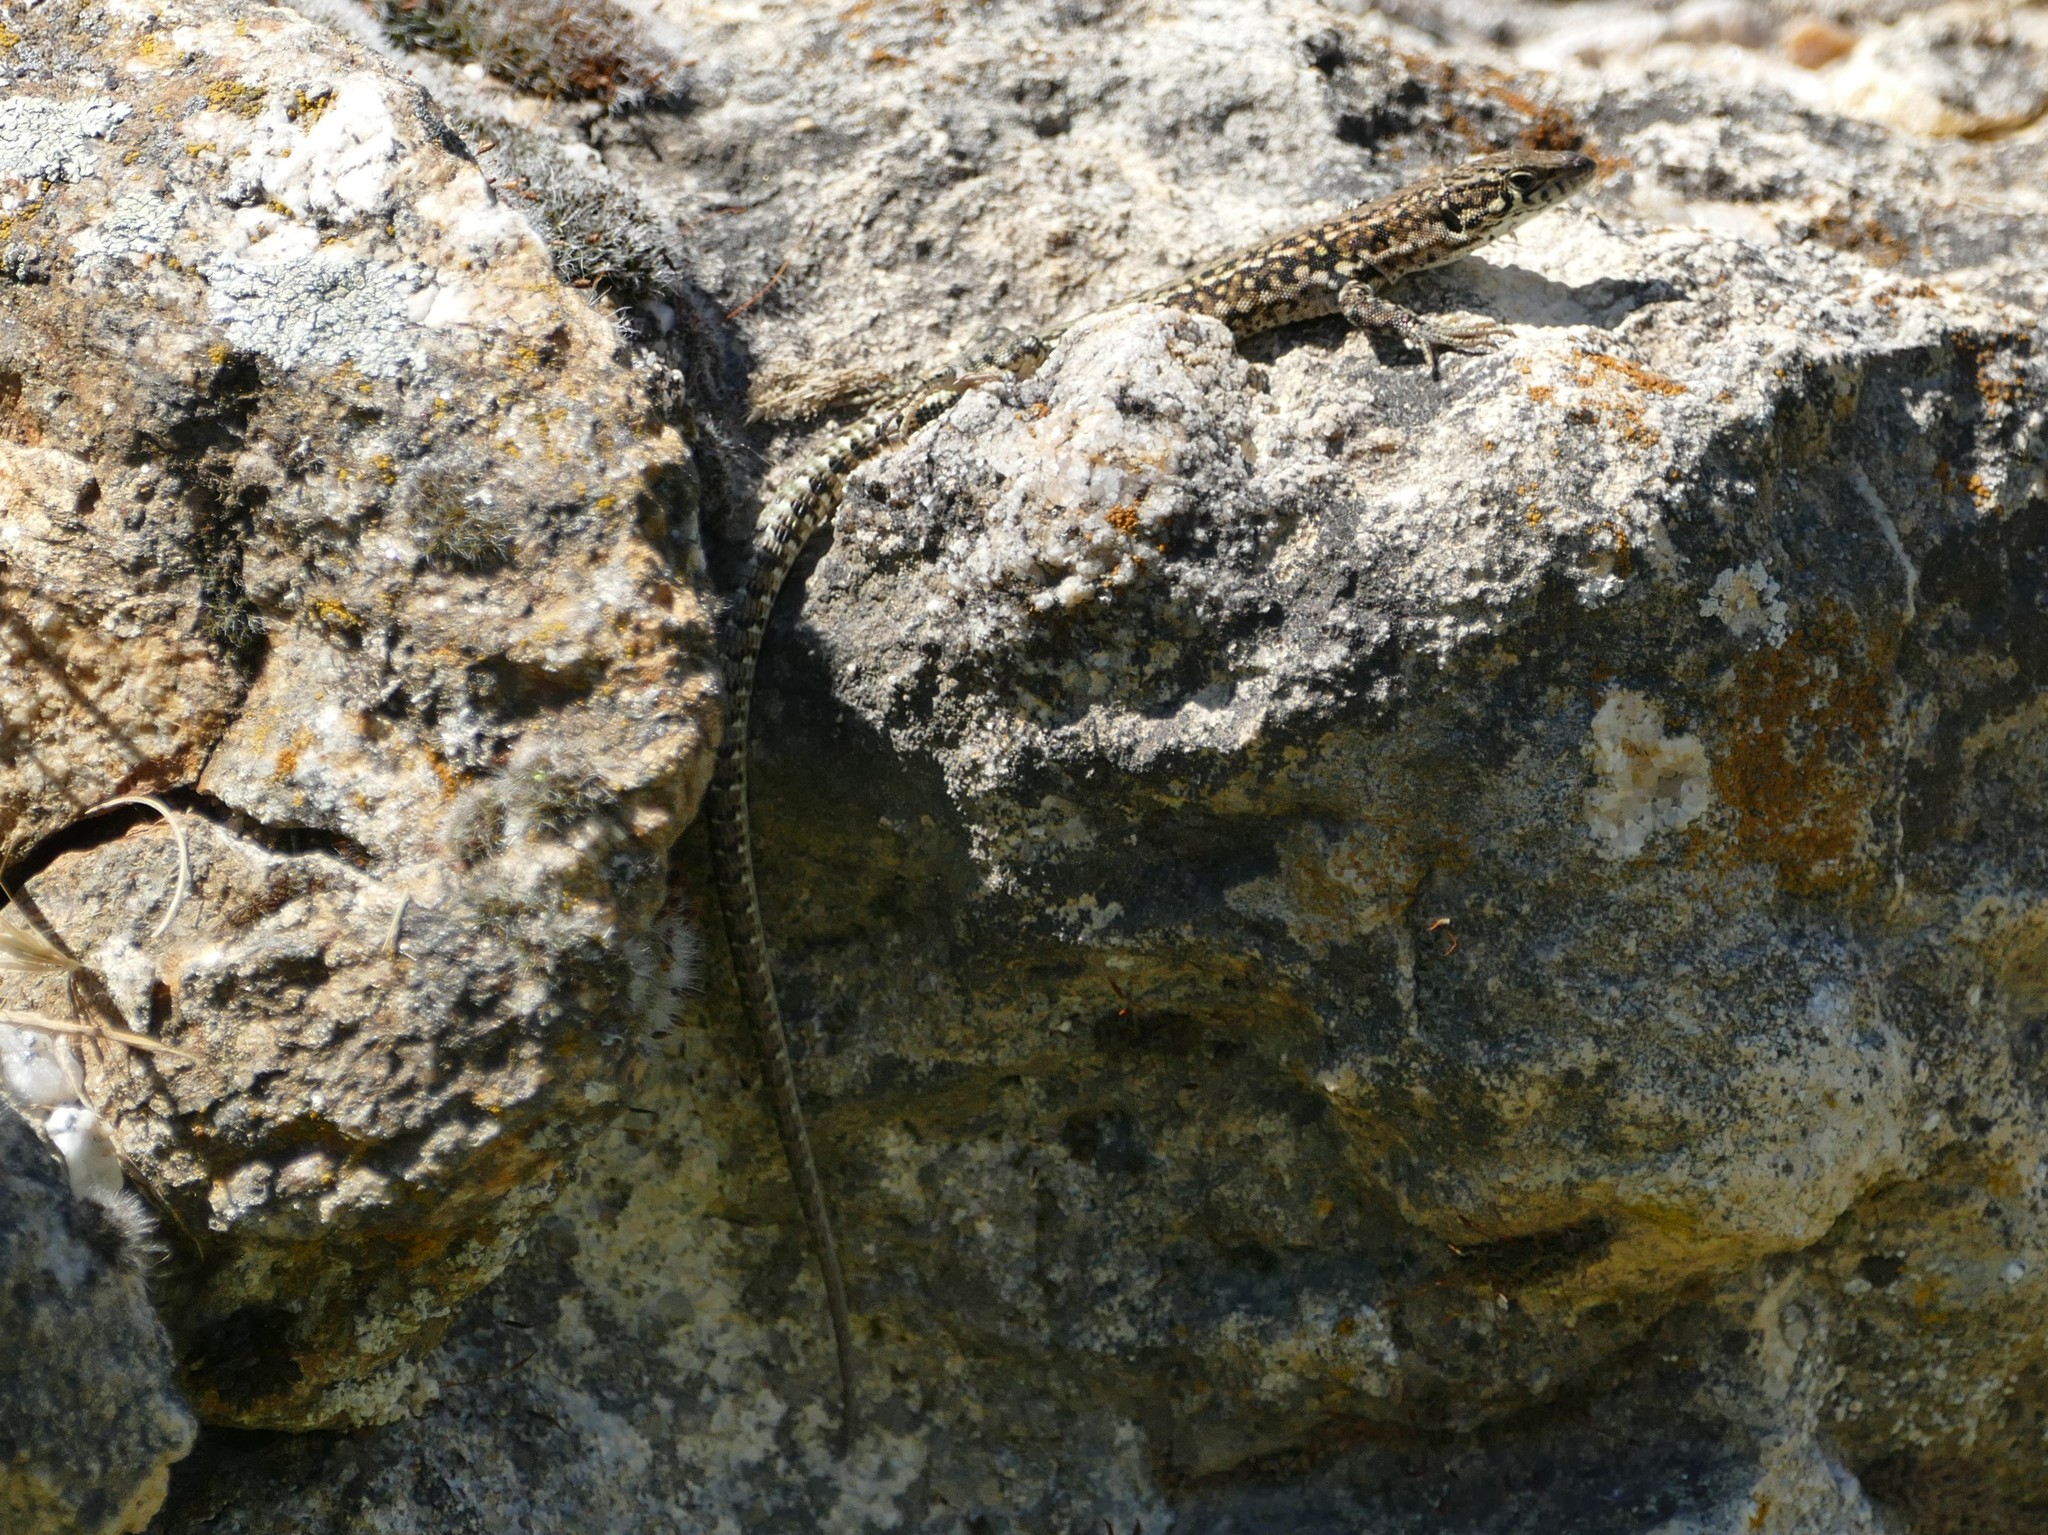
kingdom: Animalia
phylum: Chordata
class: Squamata
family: Lacertidae
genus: Podarcis
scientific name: Podarcis guadarramae
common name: Guadarrama wall lizard
